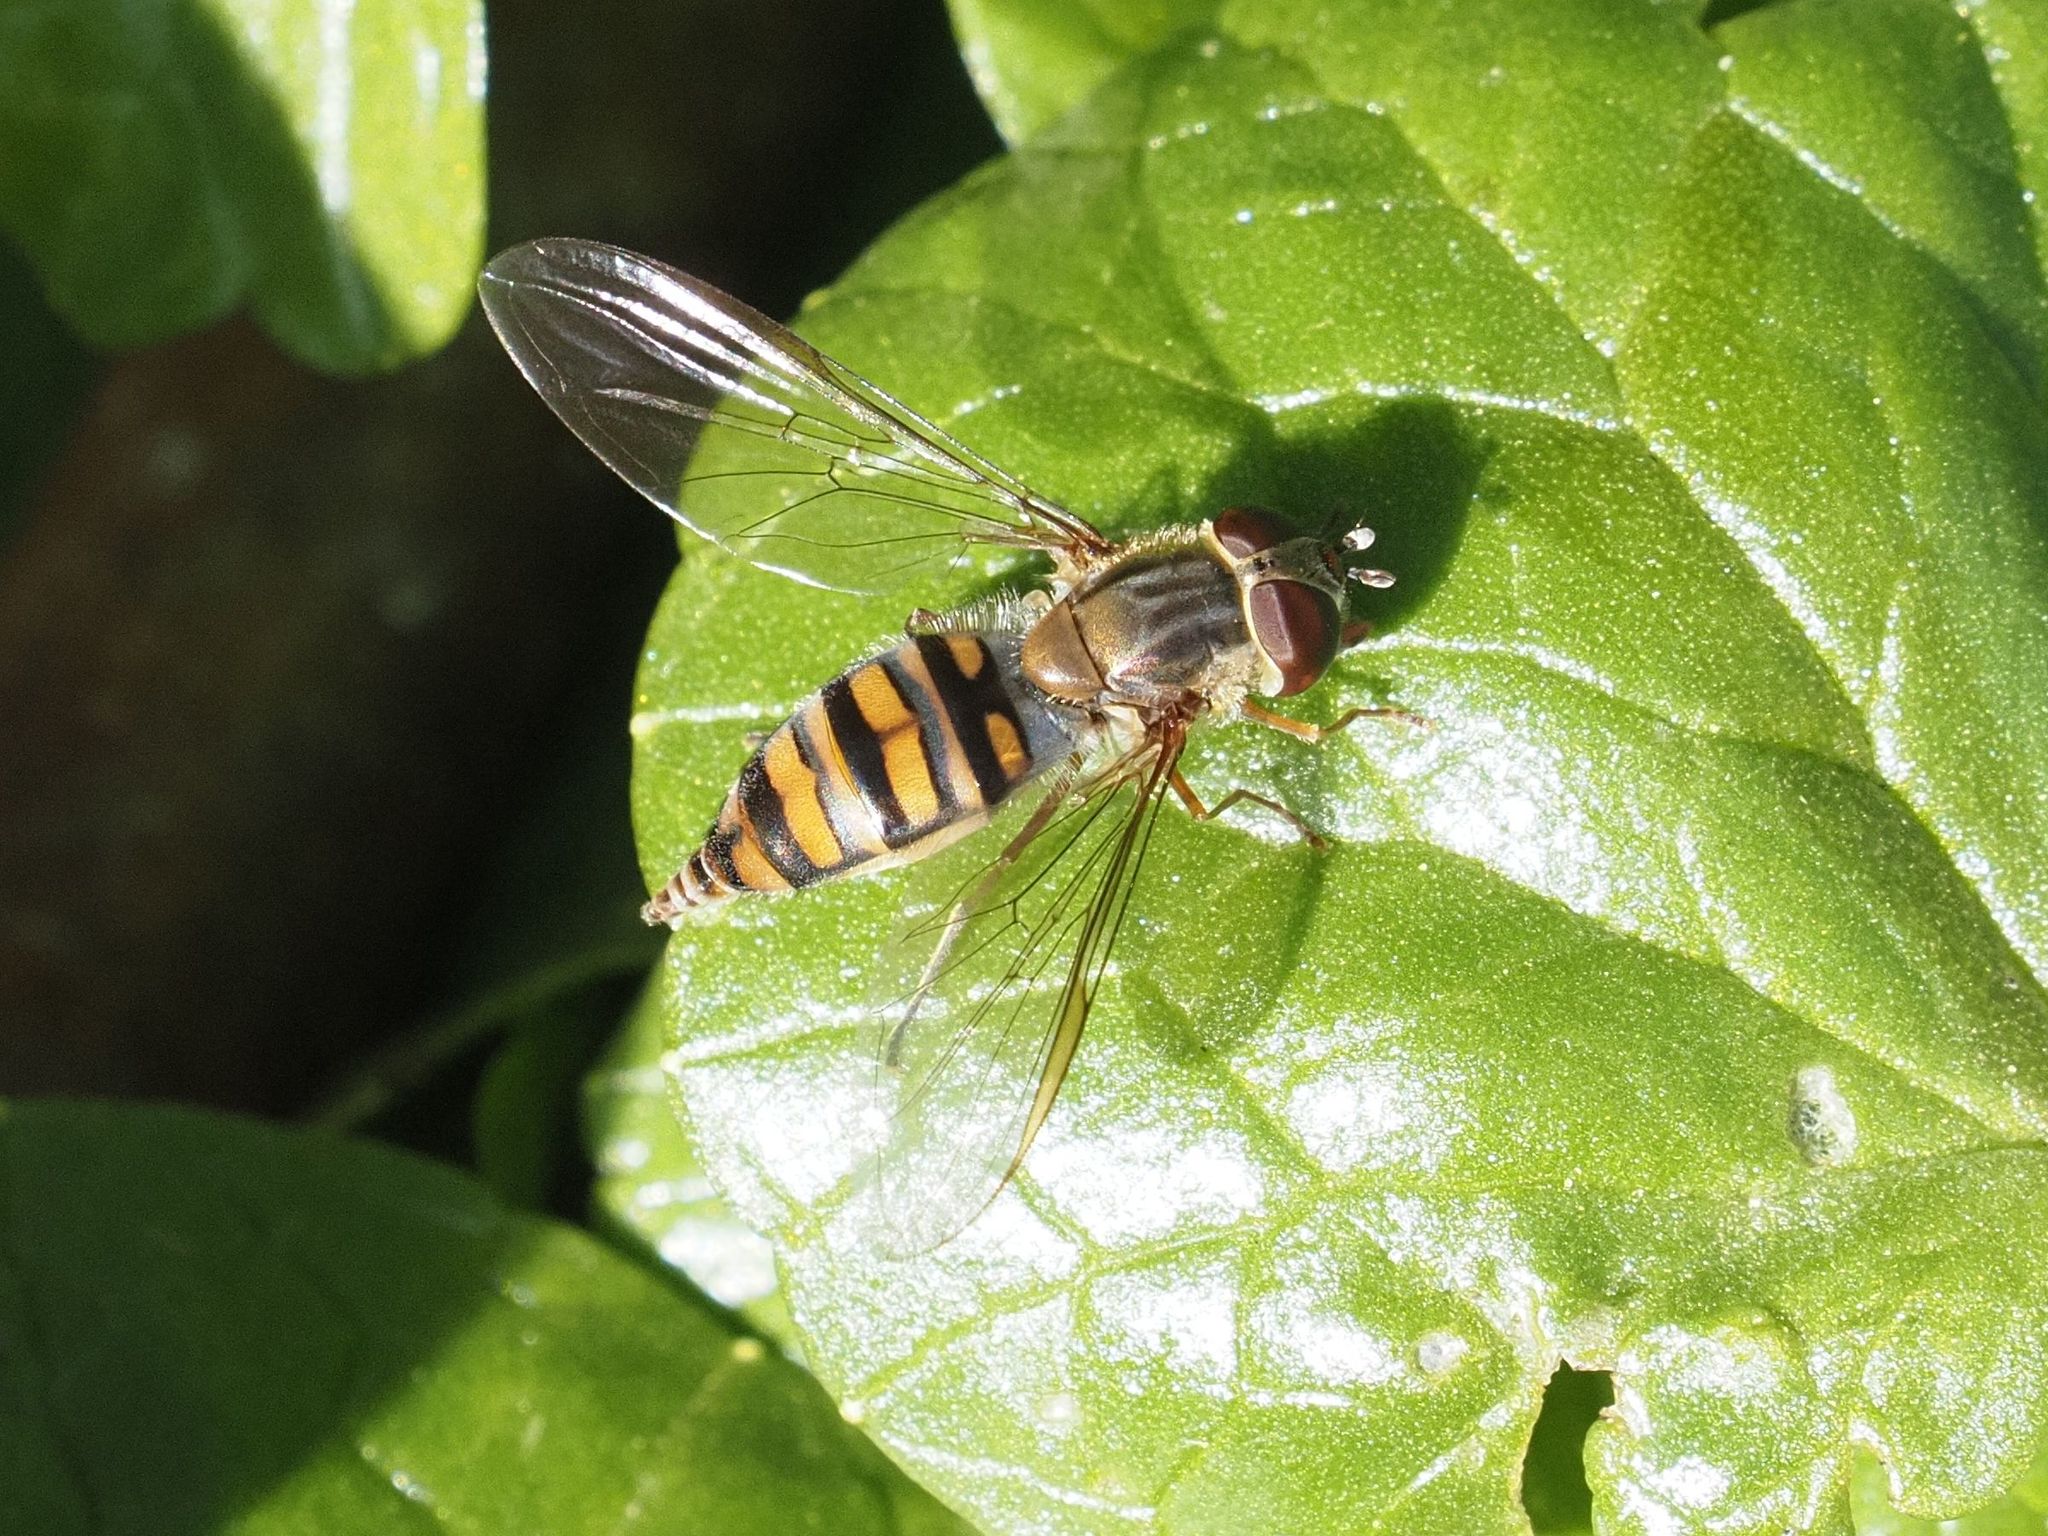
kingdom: Animalia
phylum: Arthropoda
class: Insecta
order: Diptera
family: Syrphidae
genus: Episyrphus
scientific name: Episyrphus balteatus
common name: Marmalade hoverfly
